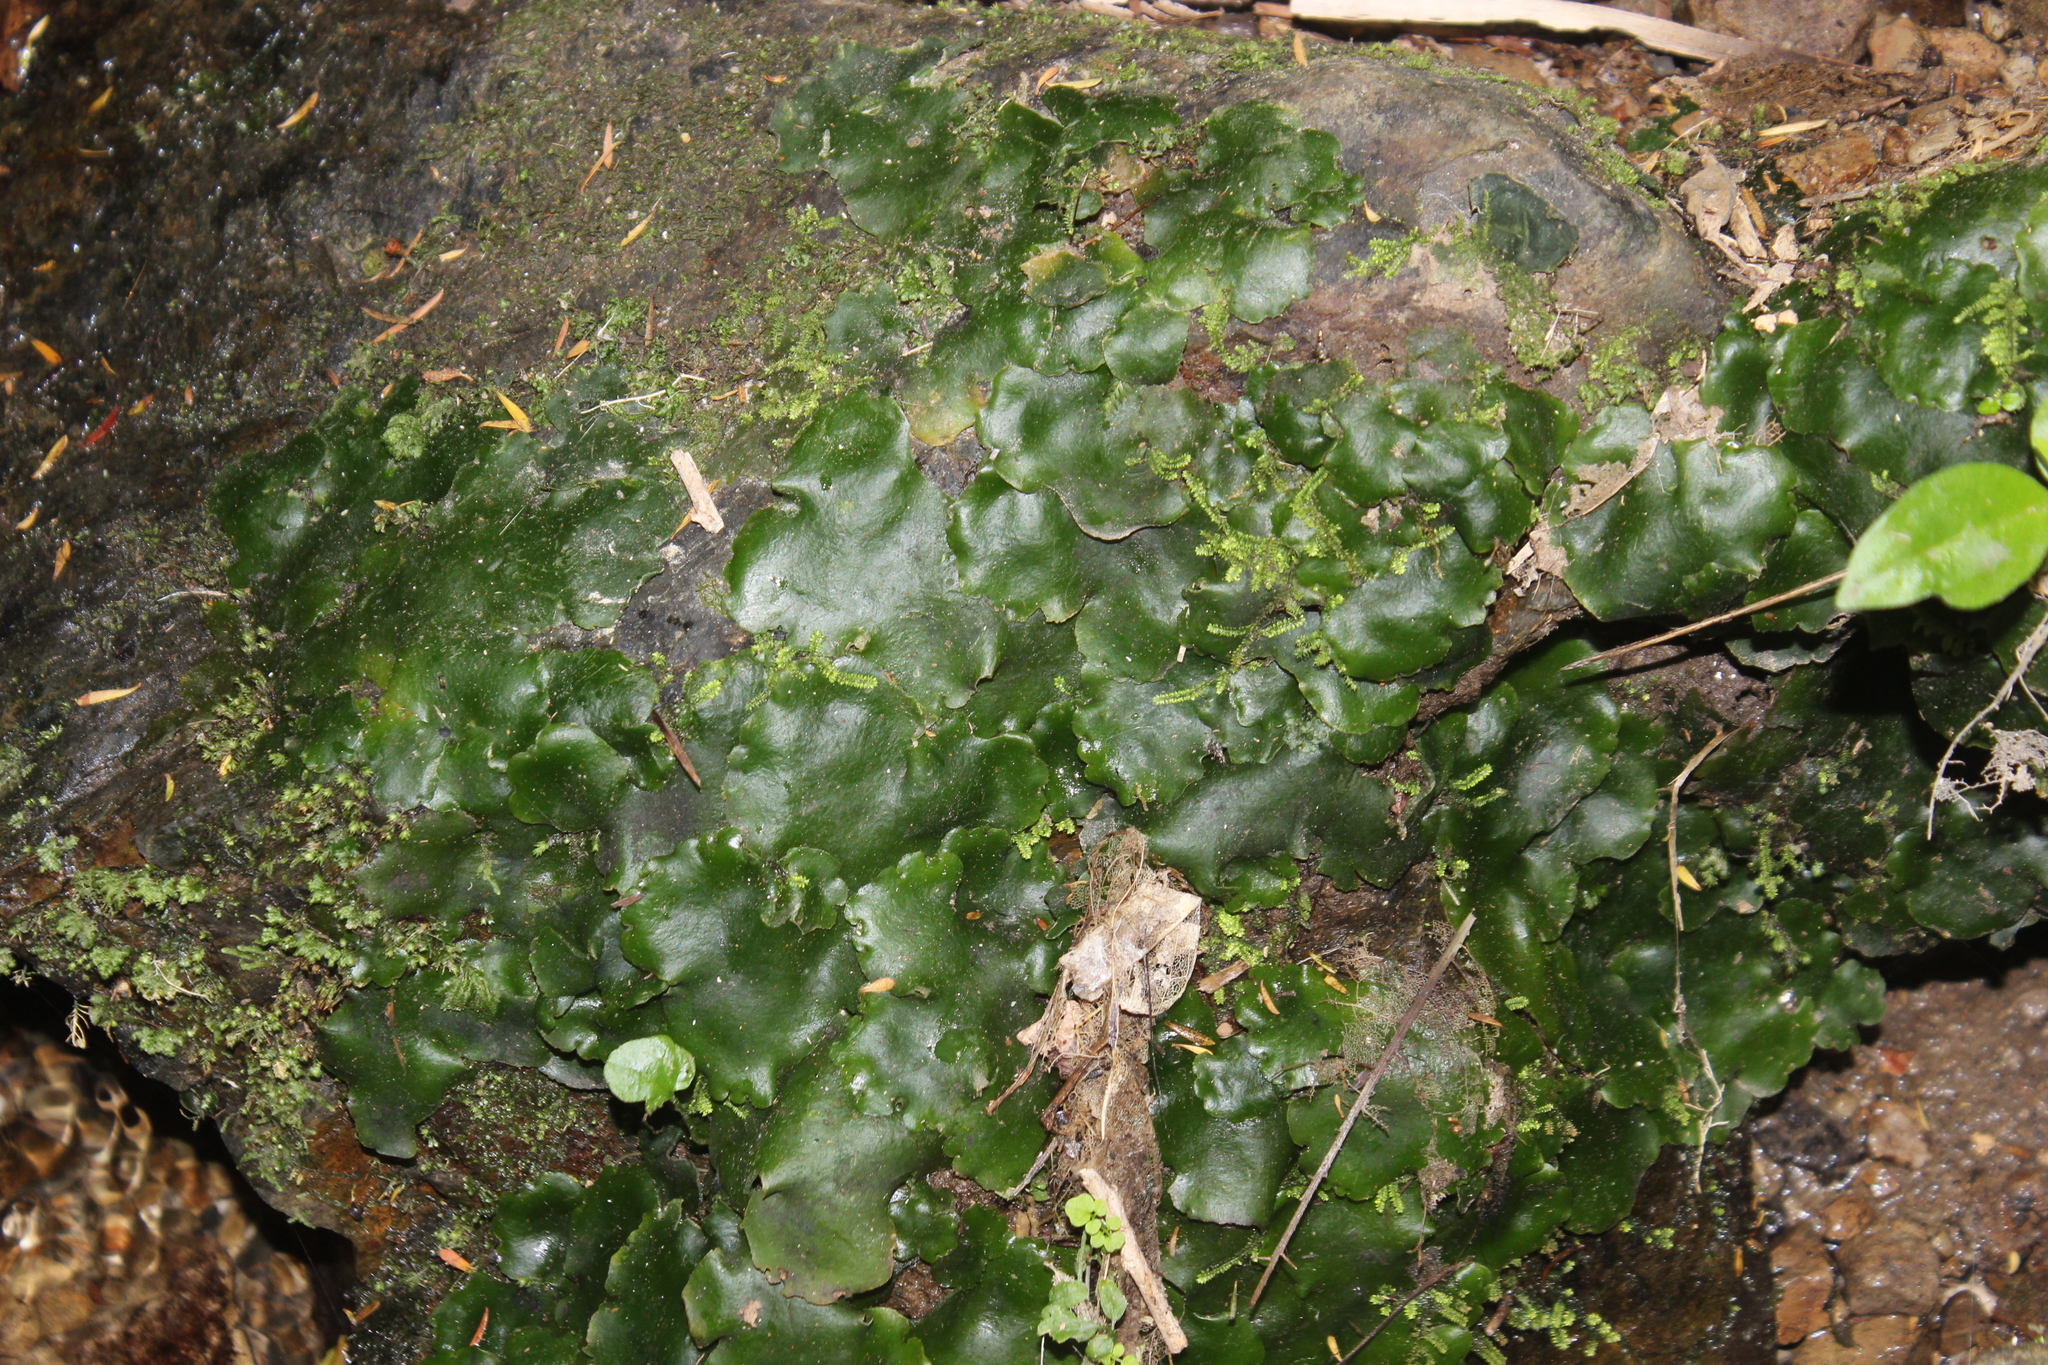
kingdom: Plantae
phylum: Marchantiophyta
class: Marchantiopsida
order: Marchantiales
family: Monocleaceae
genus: Monoclea
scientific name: Monoclea forsteri
